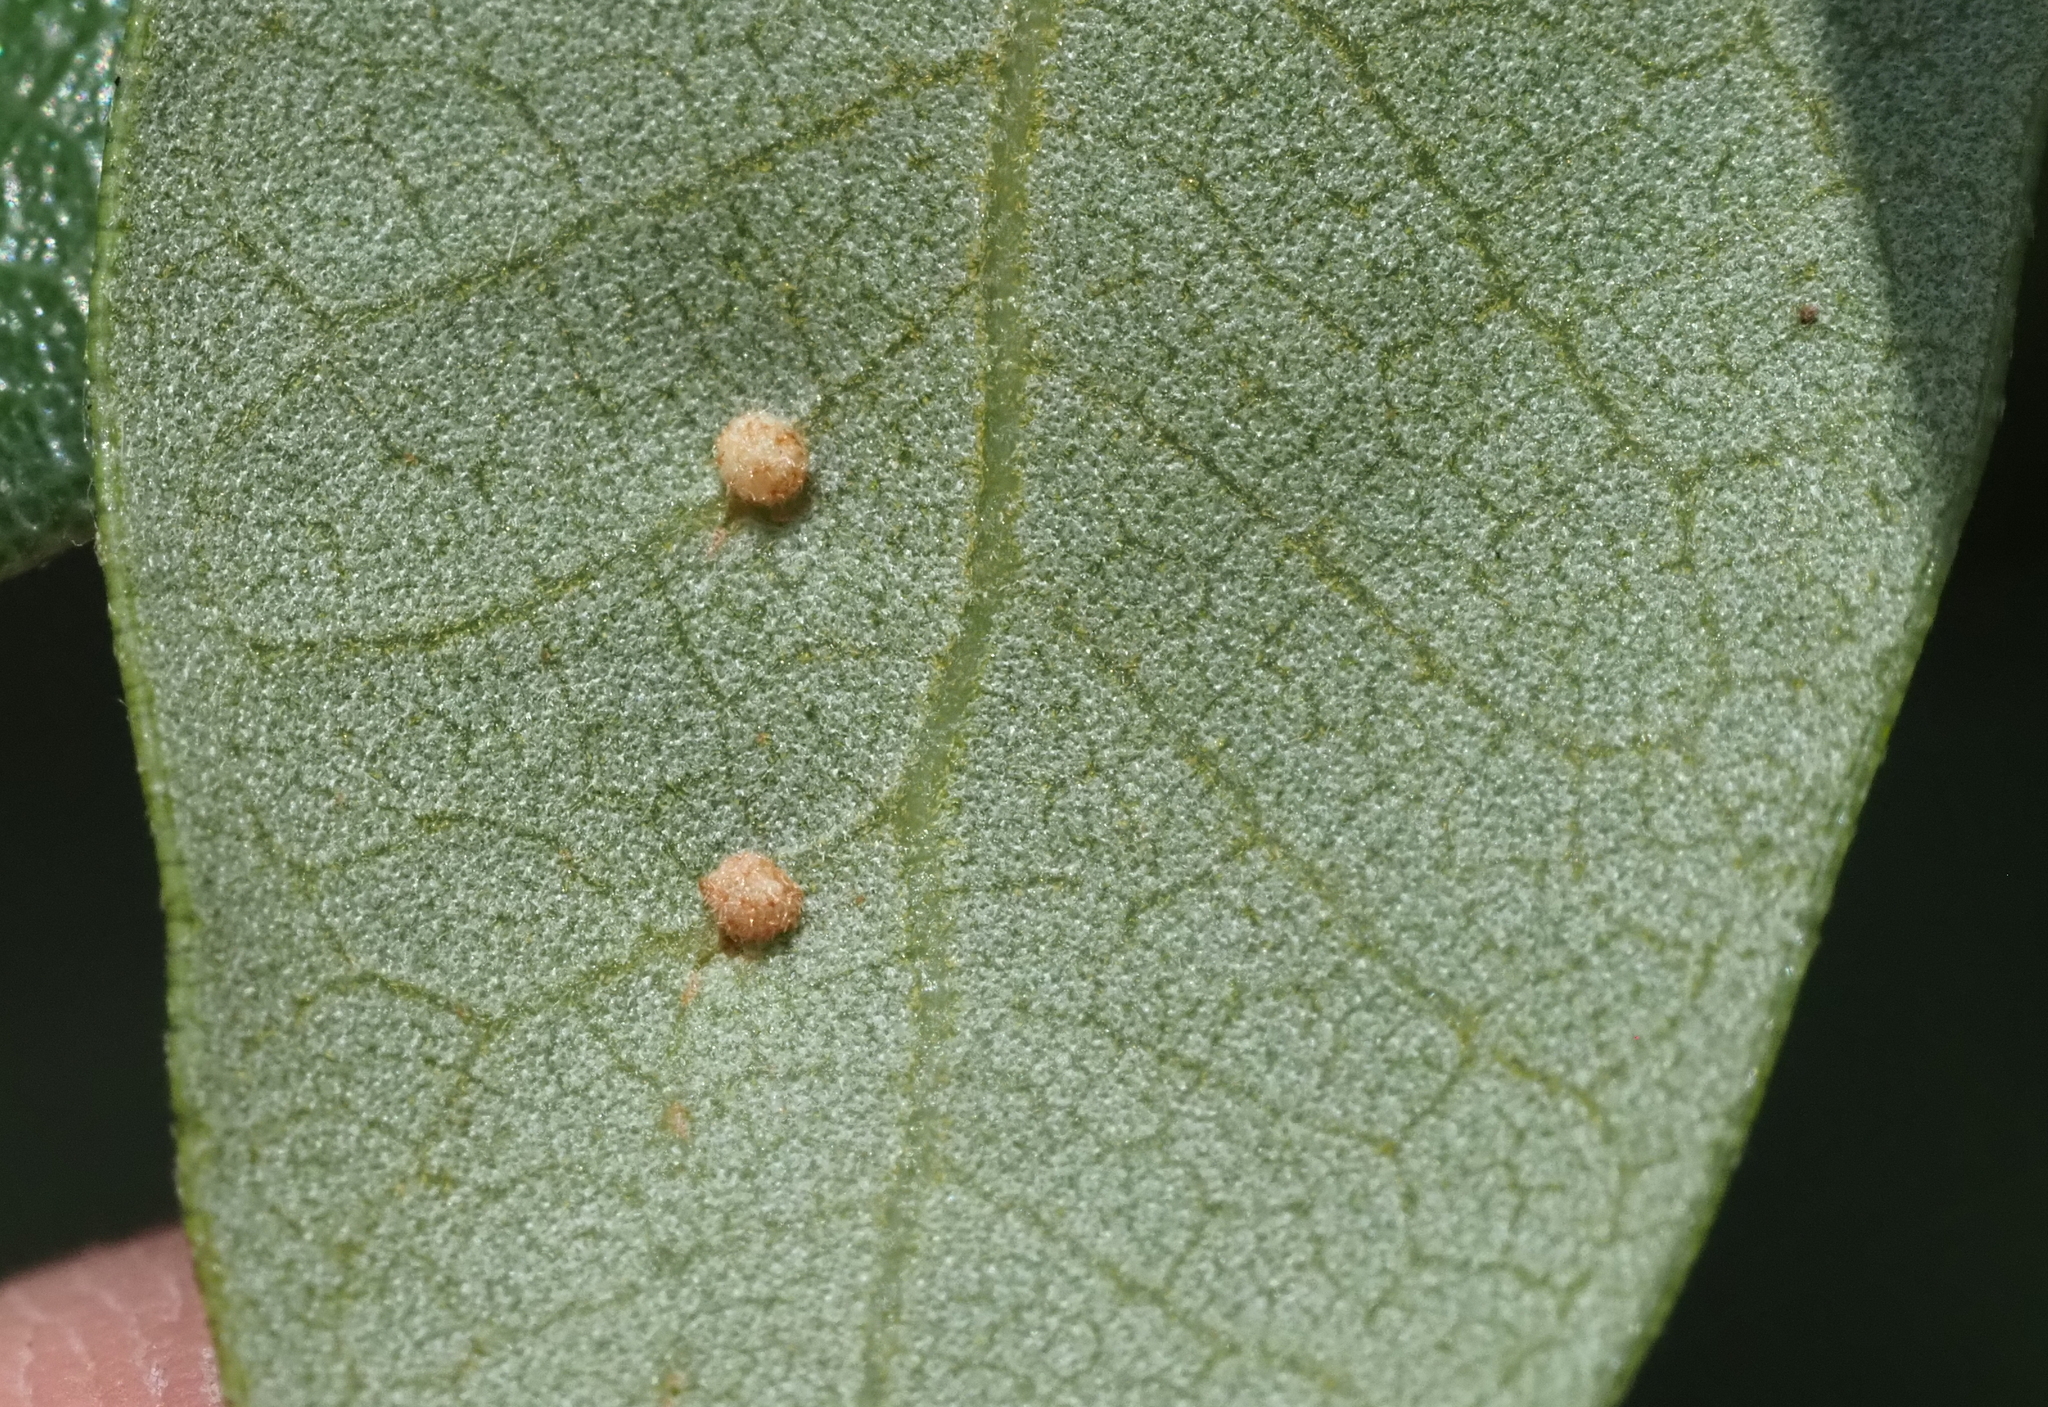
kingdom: Animalia
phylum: Arthropoda
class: Insecta
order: Hymenoptera
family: Cynipidae
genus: Belonocnema
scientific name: Belonocnema kinseyi
